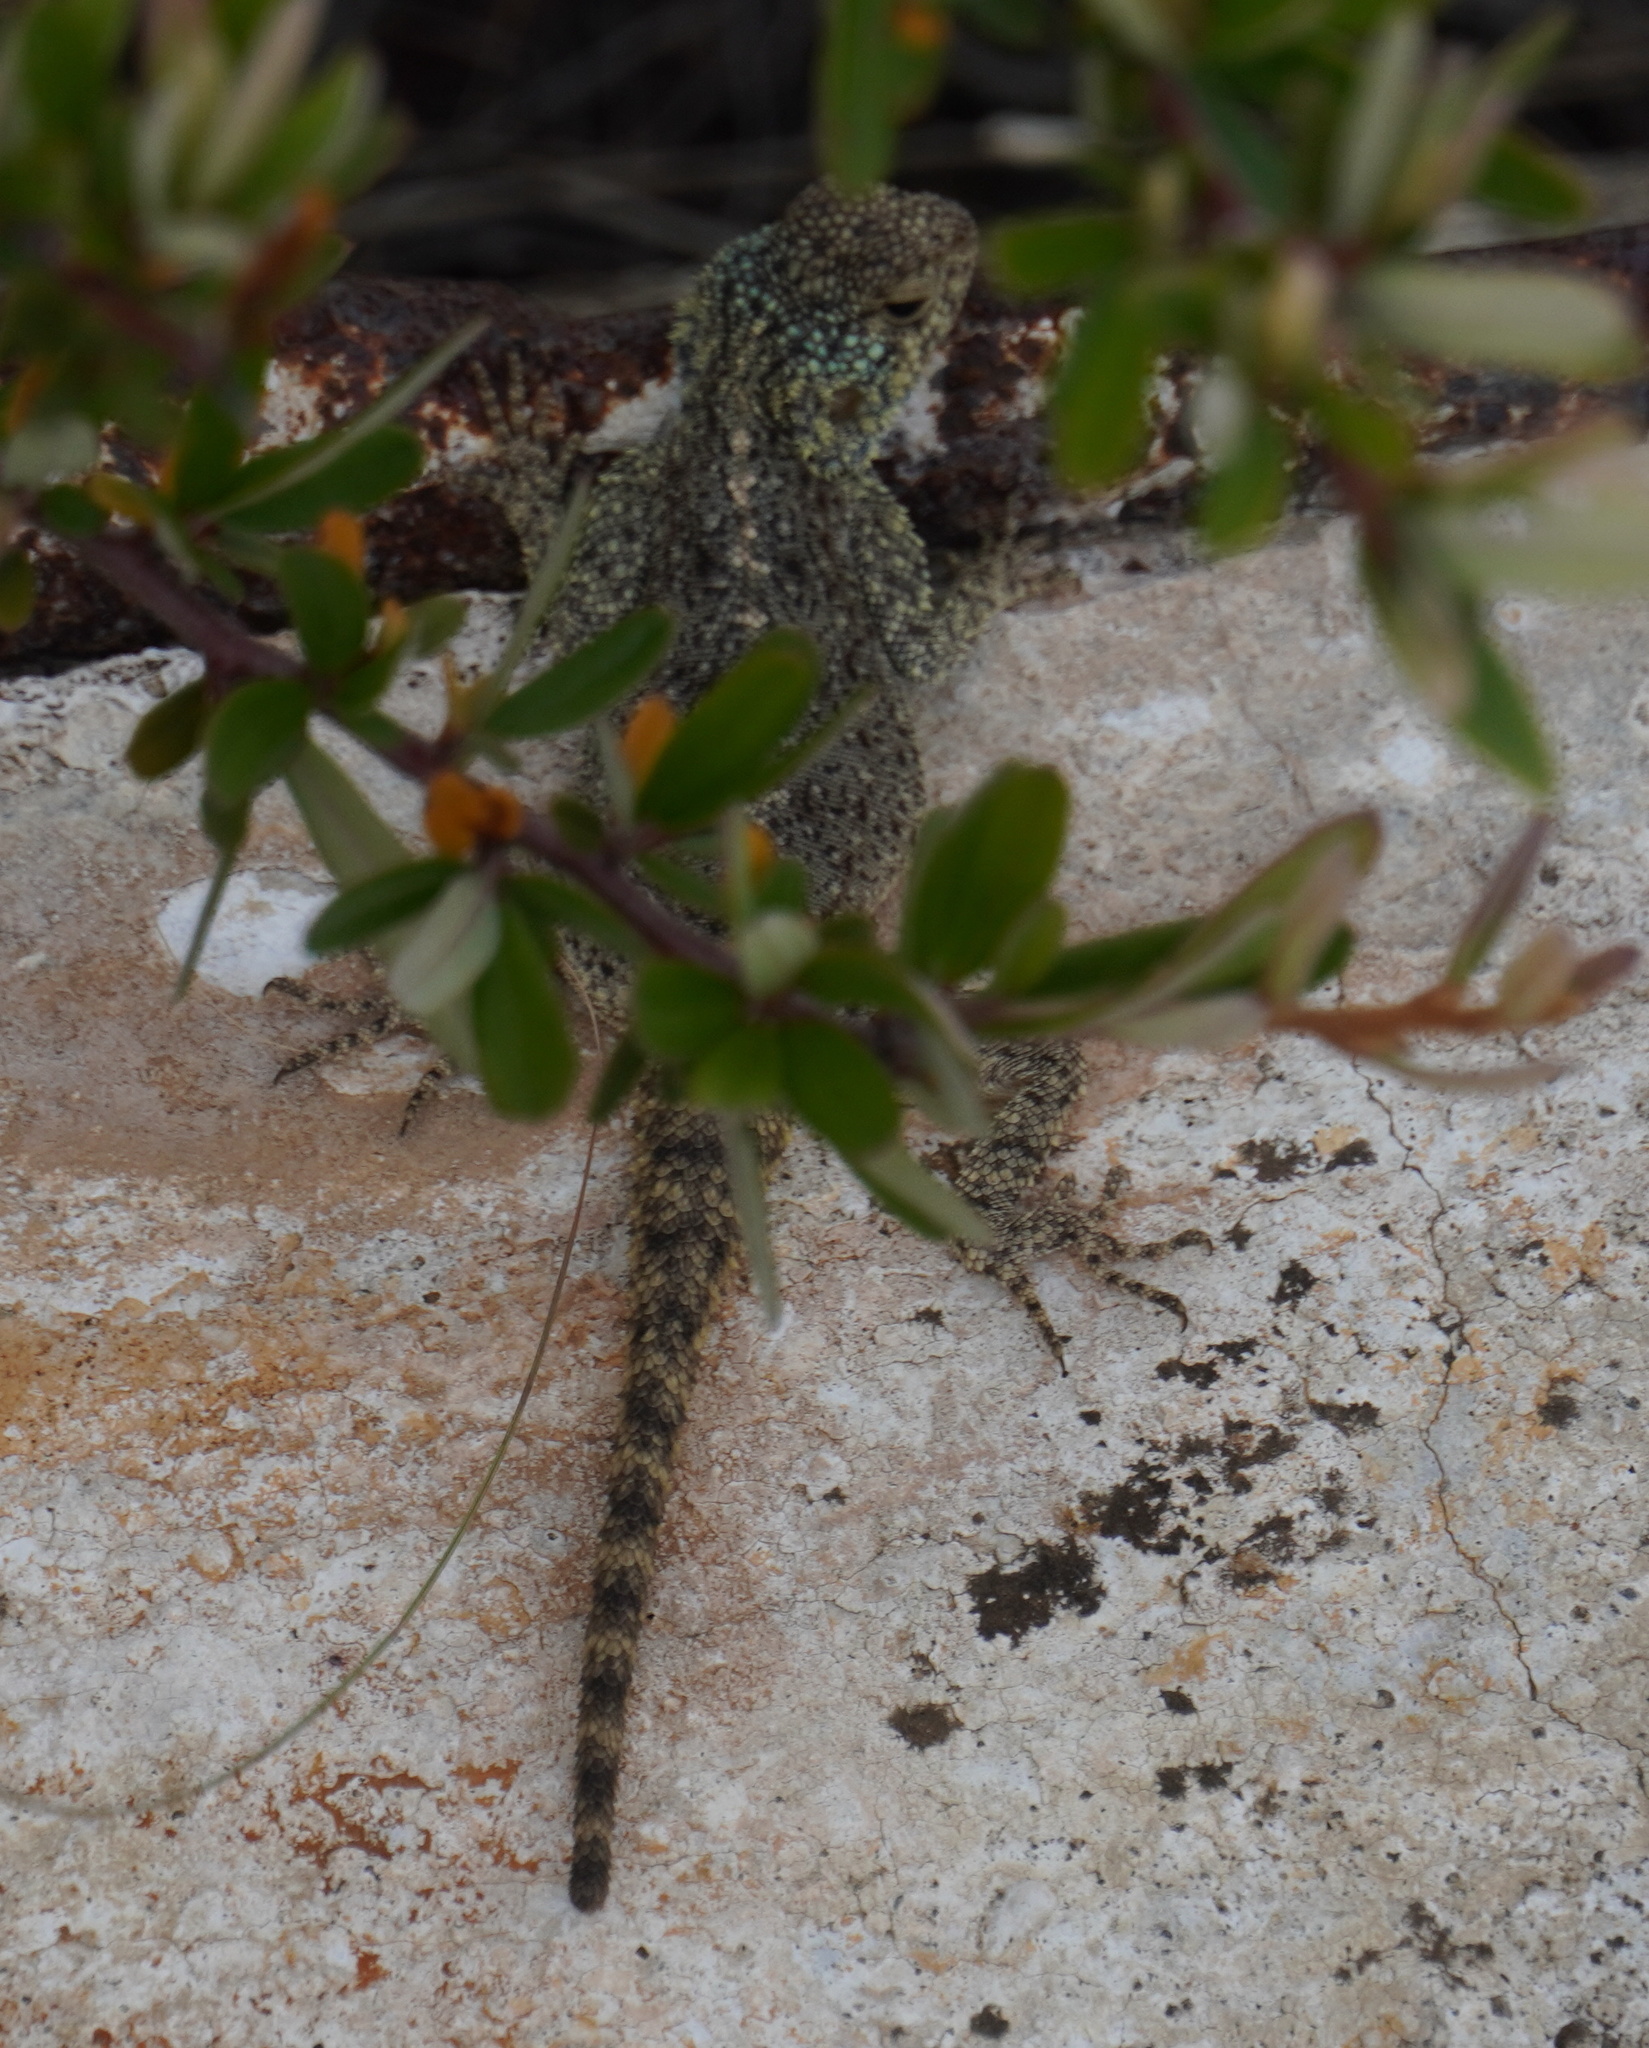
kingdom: Animalia
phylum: Chordata
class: Squamata
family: Agamidae
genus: Agama
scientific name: Agama atra
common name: Southern african rock agama
